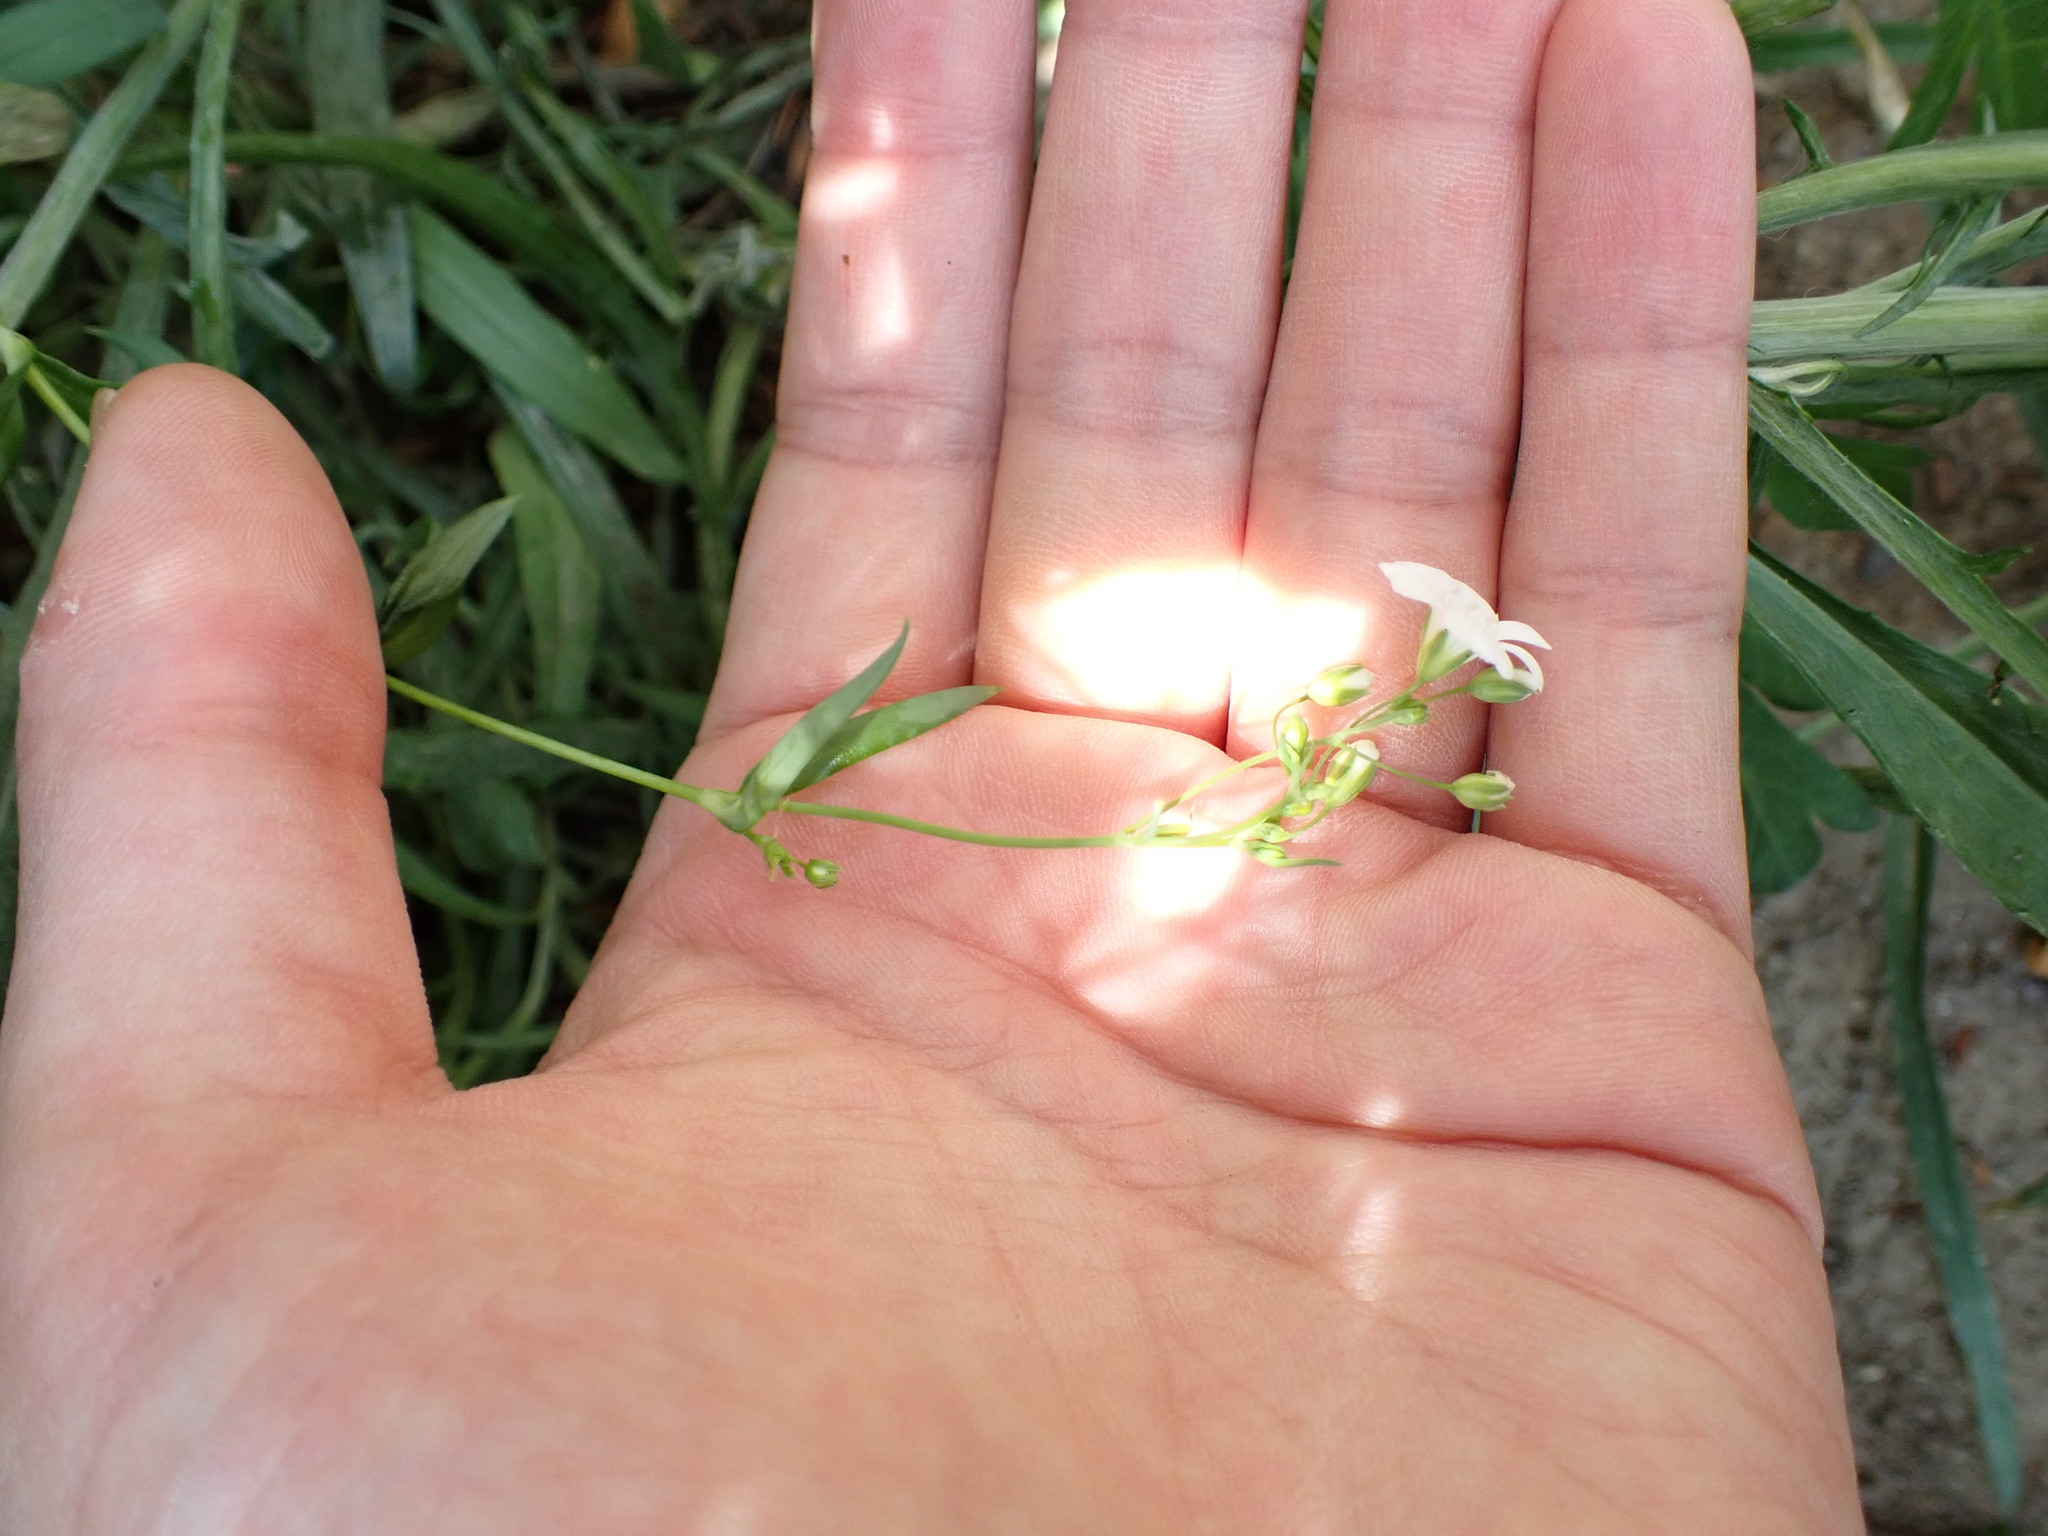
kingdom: Plantae
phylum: Tracheophyta
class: Magnoliopsida
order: Caryophyllales
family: Caryophyllaceae
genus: Gypsophila
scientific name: Gypsophila elegans
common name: Showy baby's-breath
